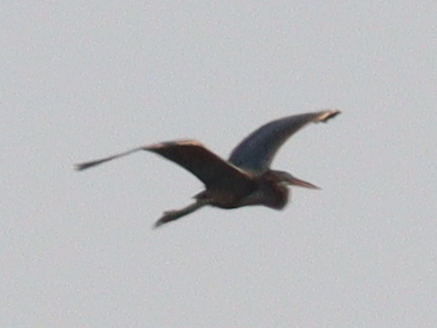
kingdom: Animalia
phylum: Chordata
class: Aves
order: Pelecaniformes
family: Ardeidae
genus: Ardea
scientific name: Ardea purpurea
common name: Purple heron
